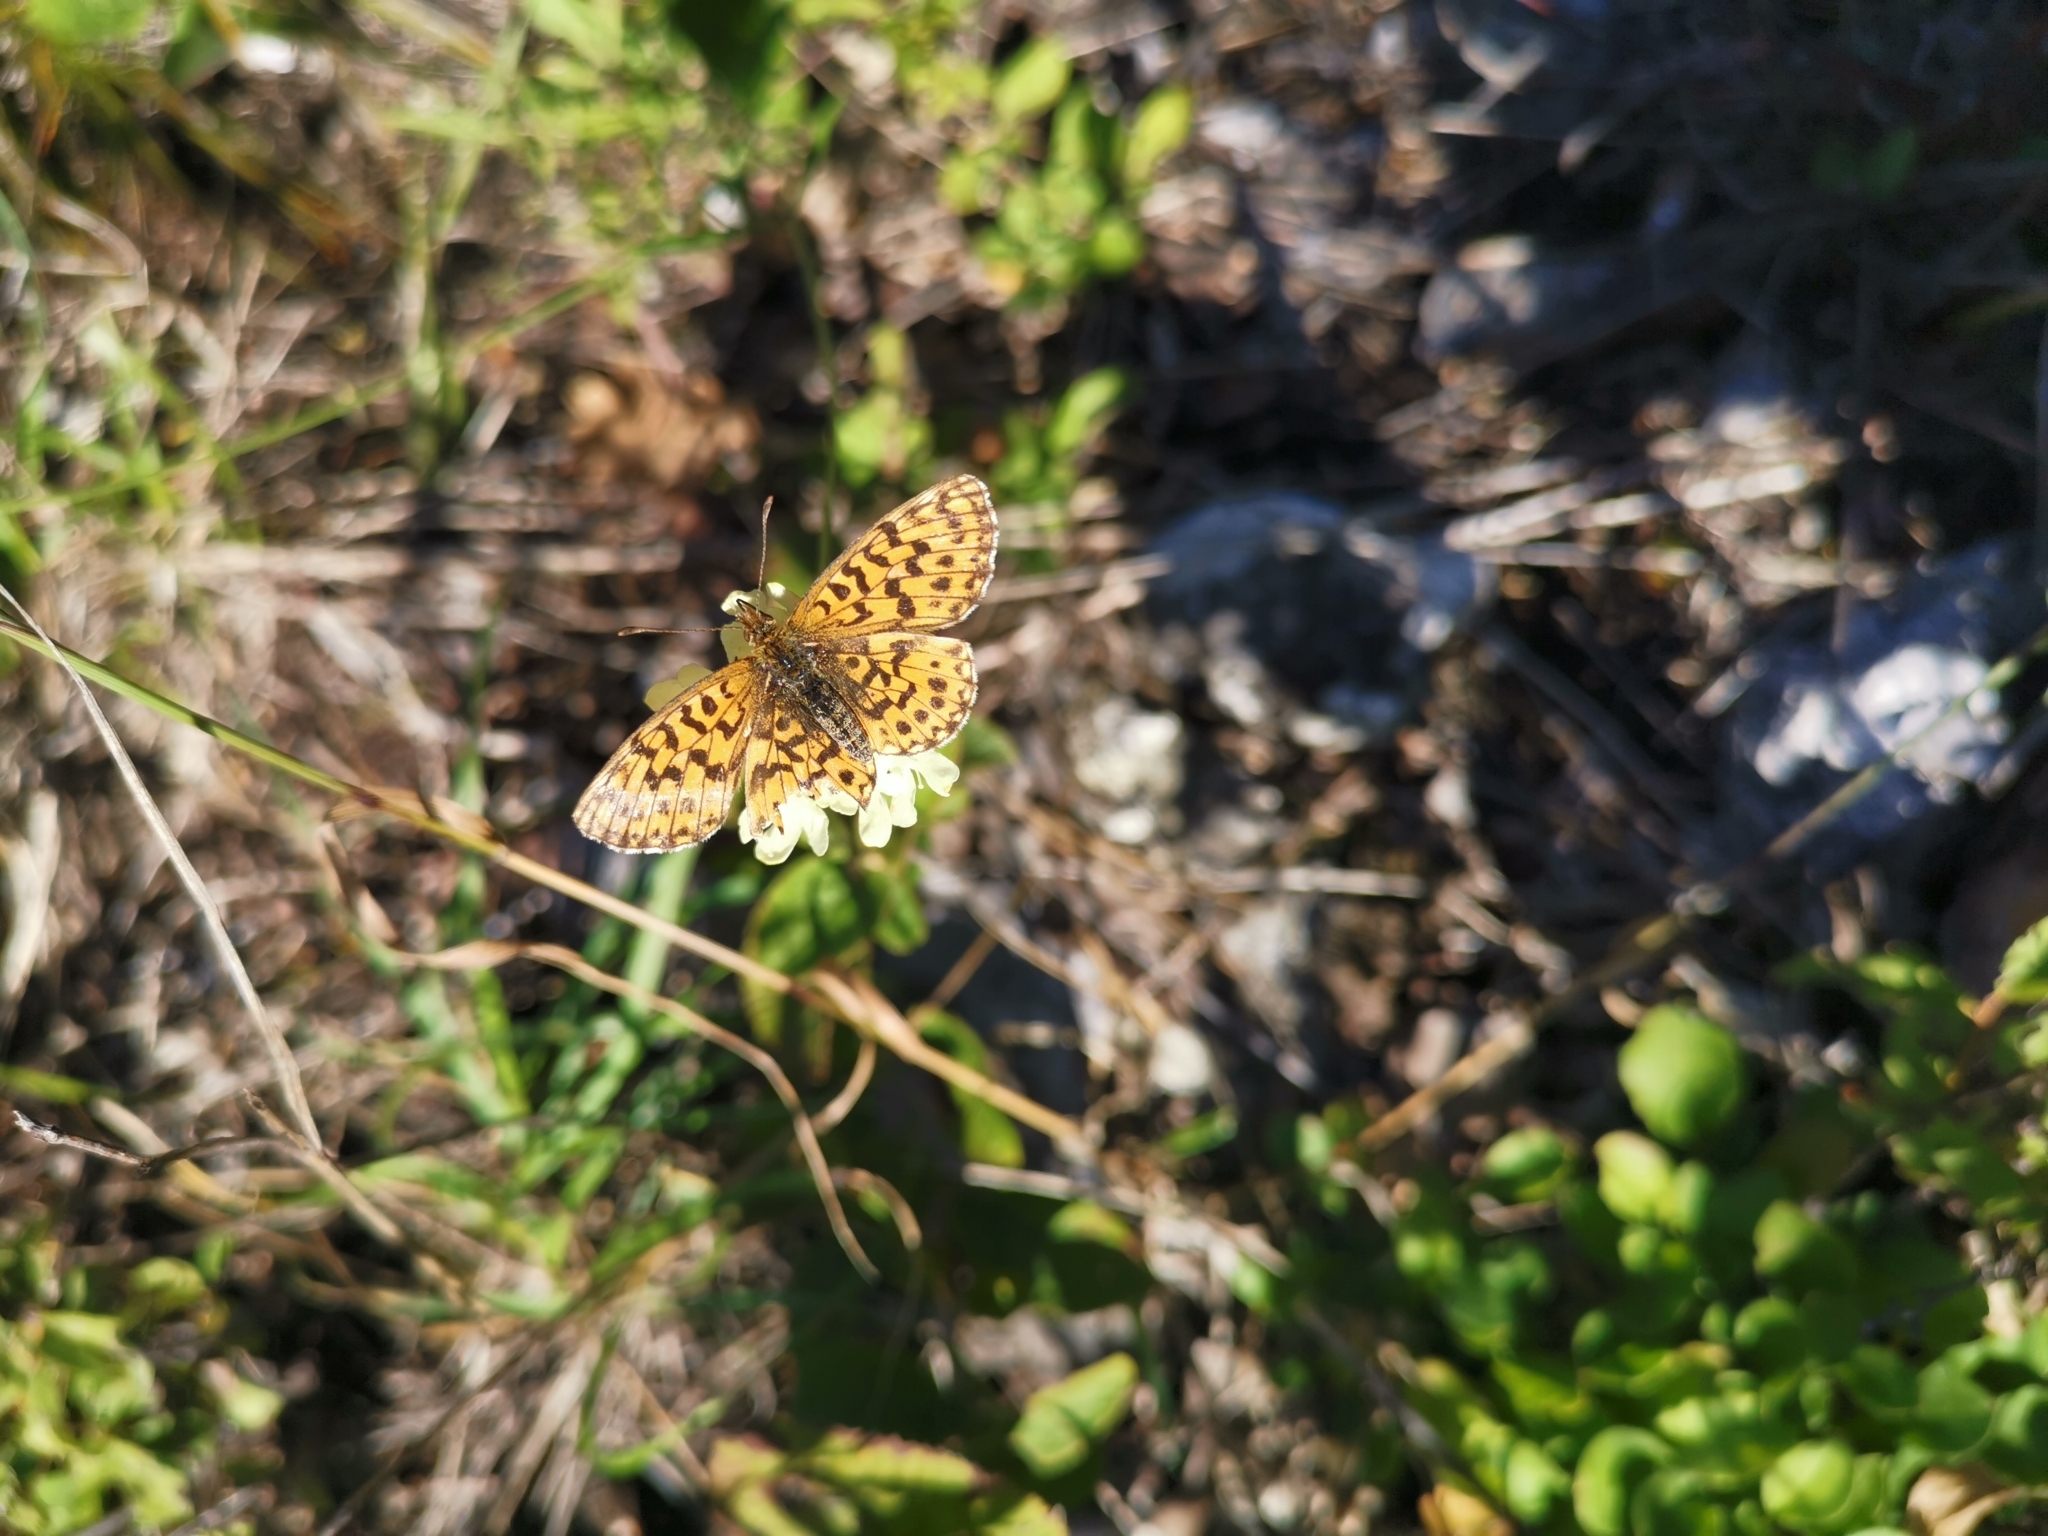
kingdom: Animalia
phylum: Arthropoda
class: Insecta
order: Lepidoptera
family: Nymphalidae
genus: Boloria
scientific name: Boloria dia
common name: Weaver's fritillary
